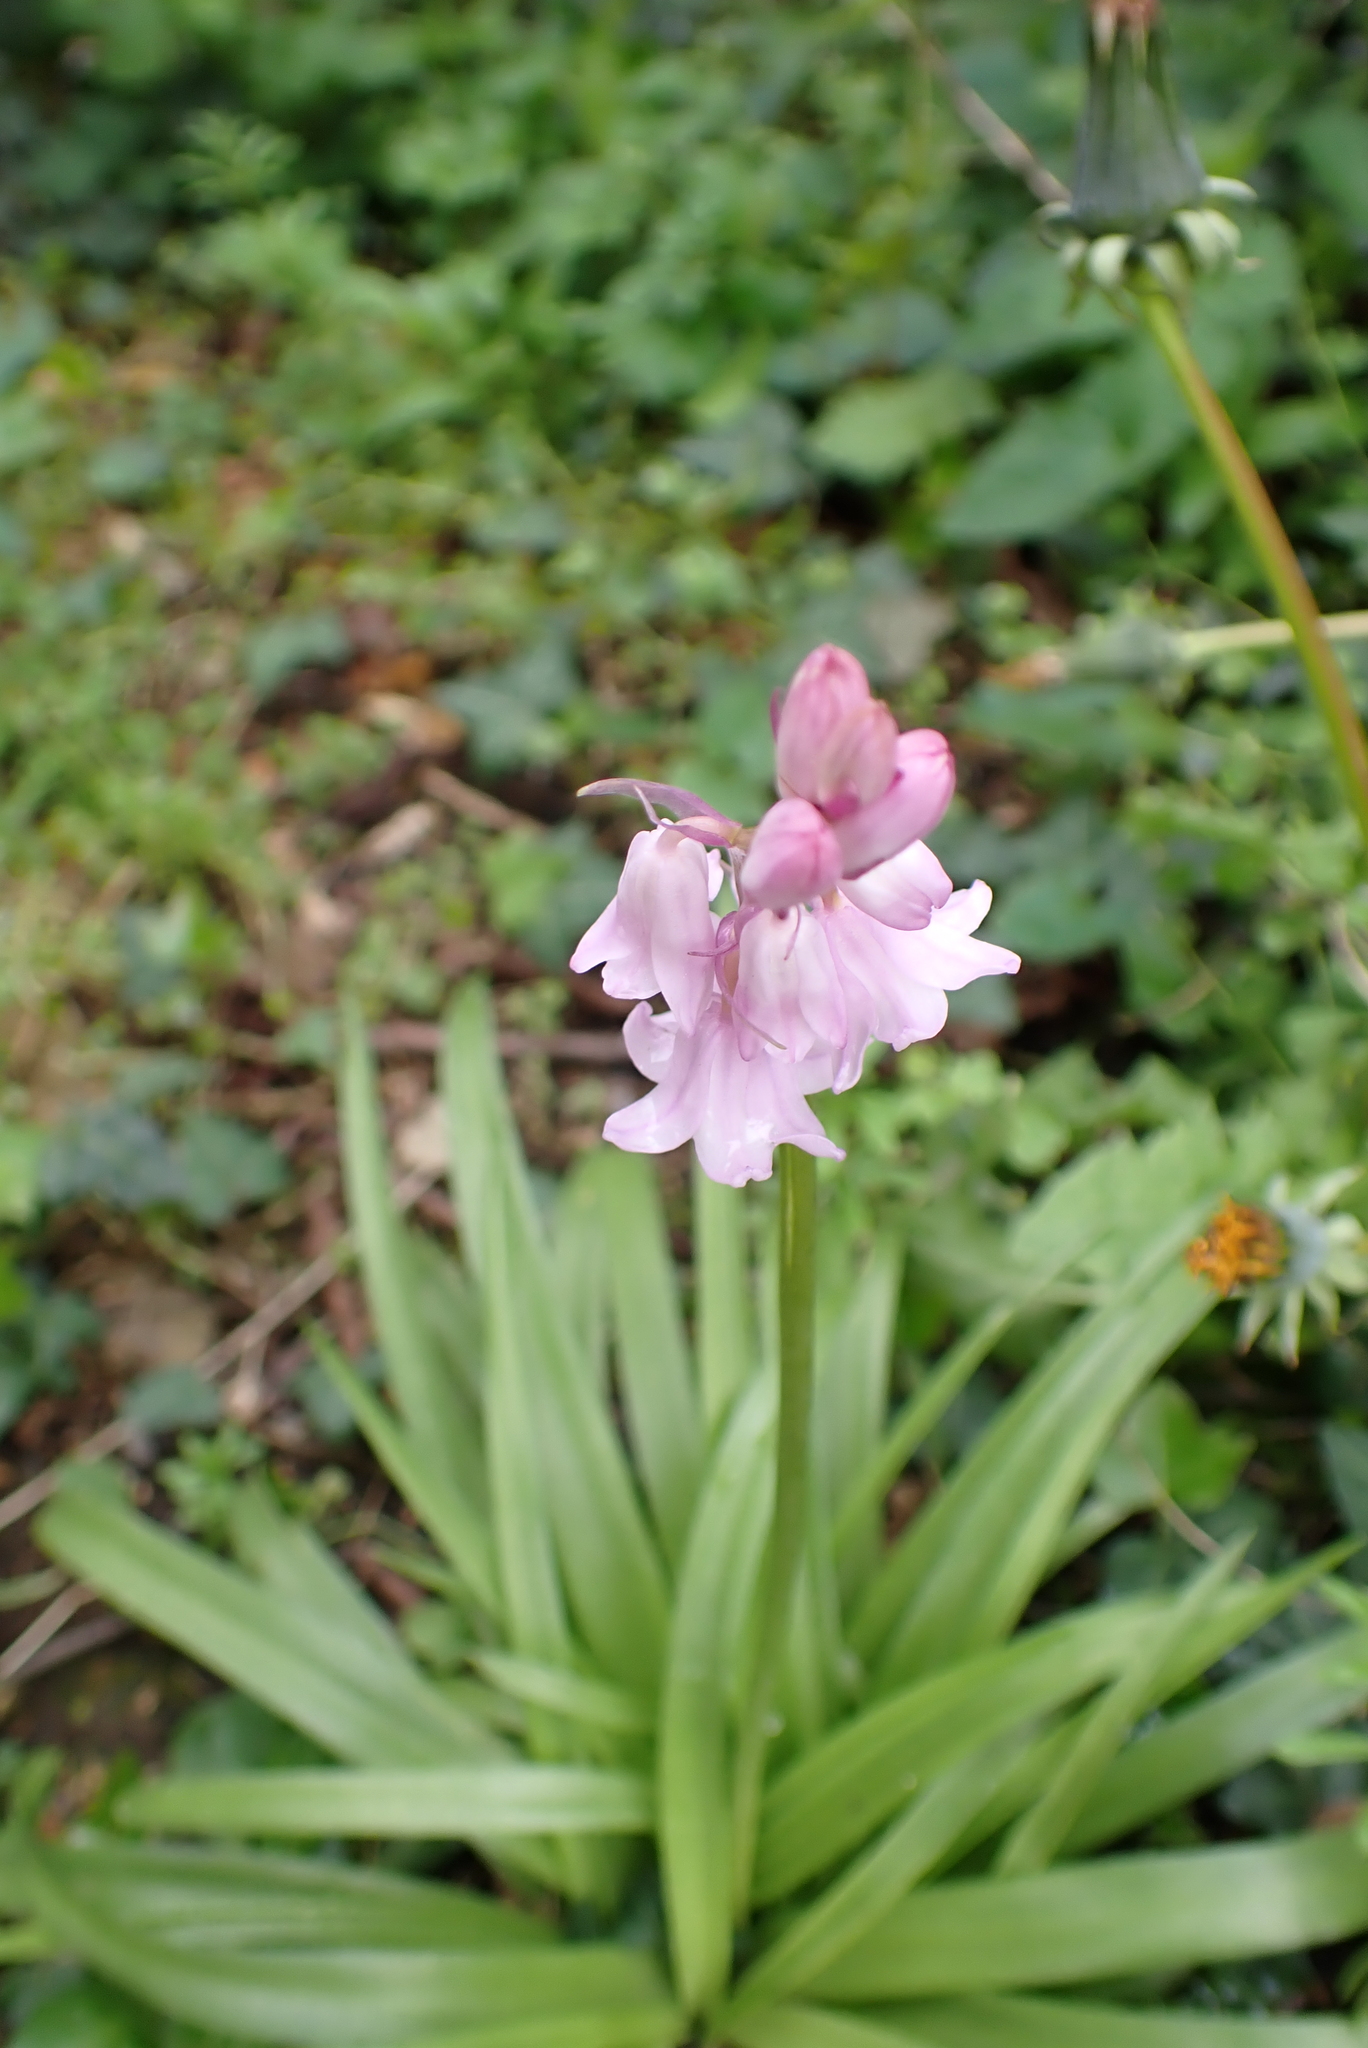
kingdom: Plantae
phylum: Tracheophyta
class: Liliopsida
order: Asparagales
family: Asparagaceae
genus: Hyacinthoides
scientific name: Hyacinthoides massartiana
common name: Hyacinthoides
